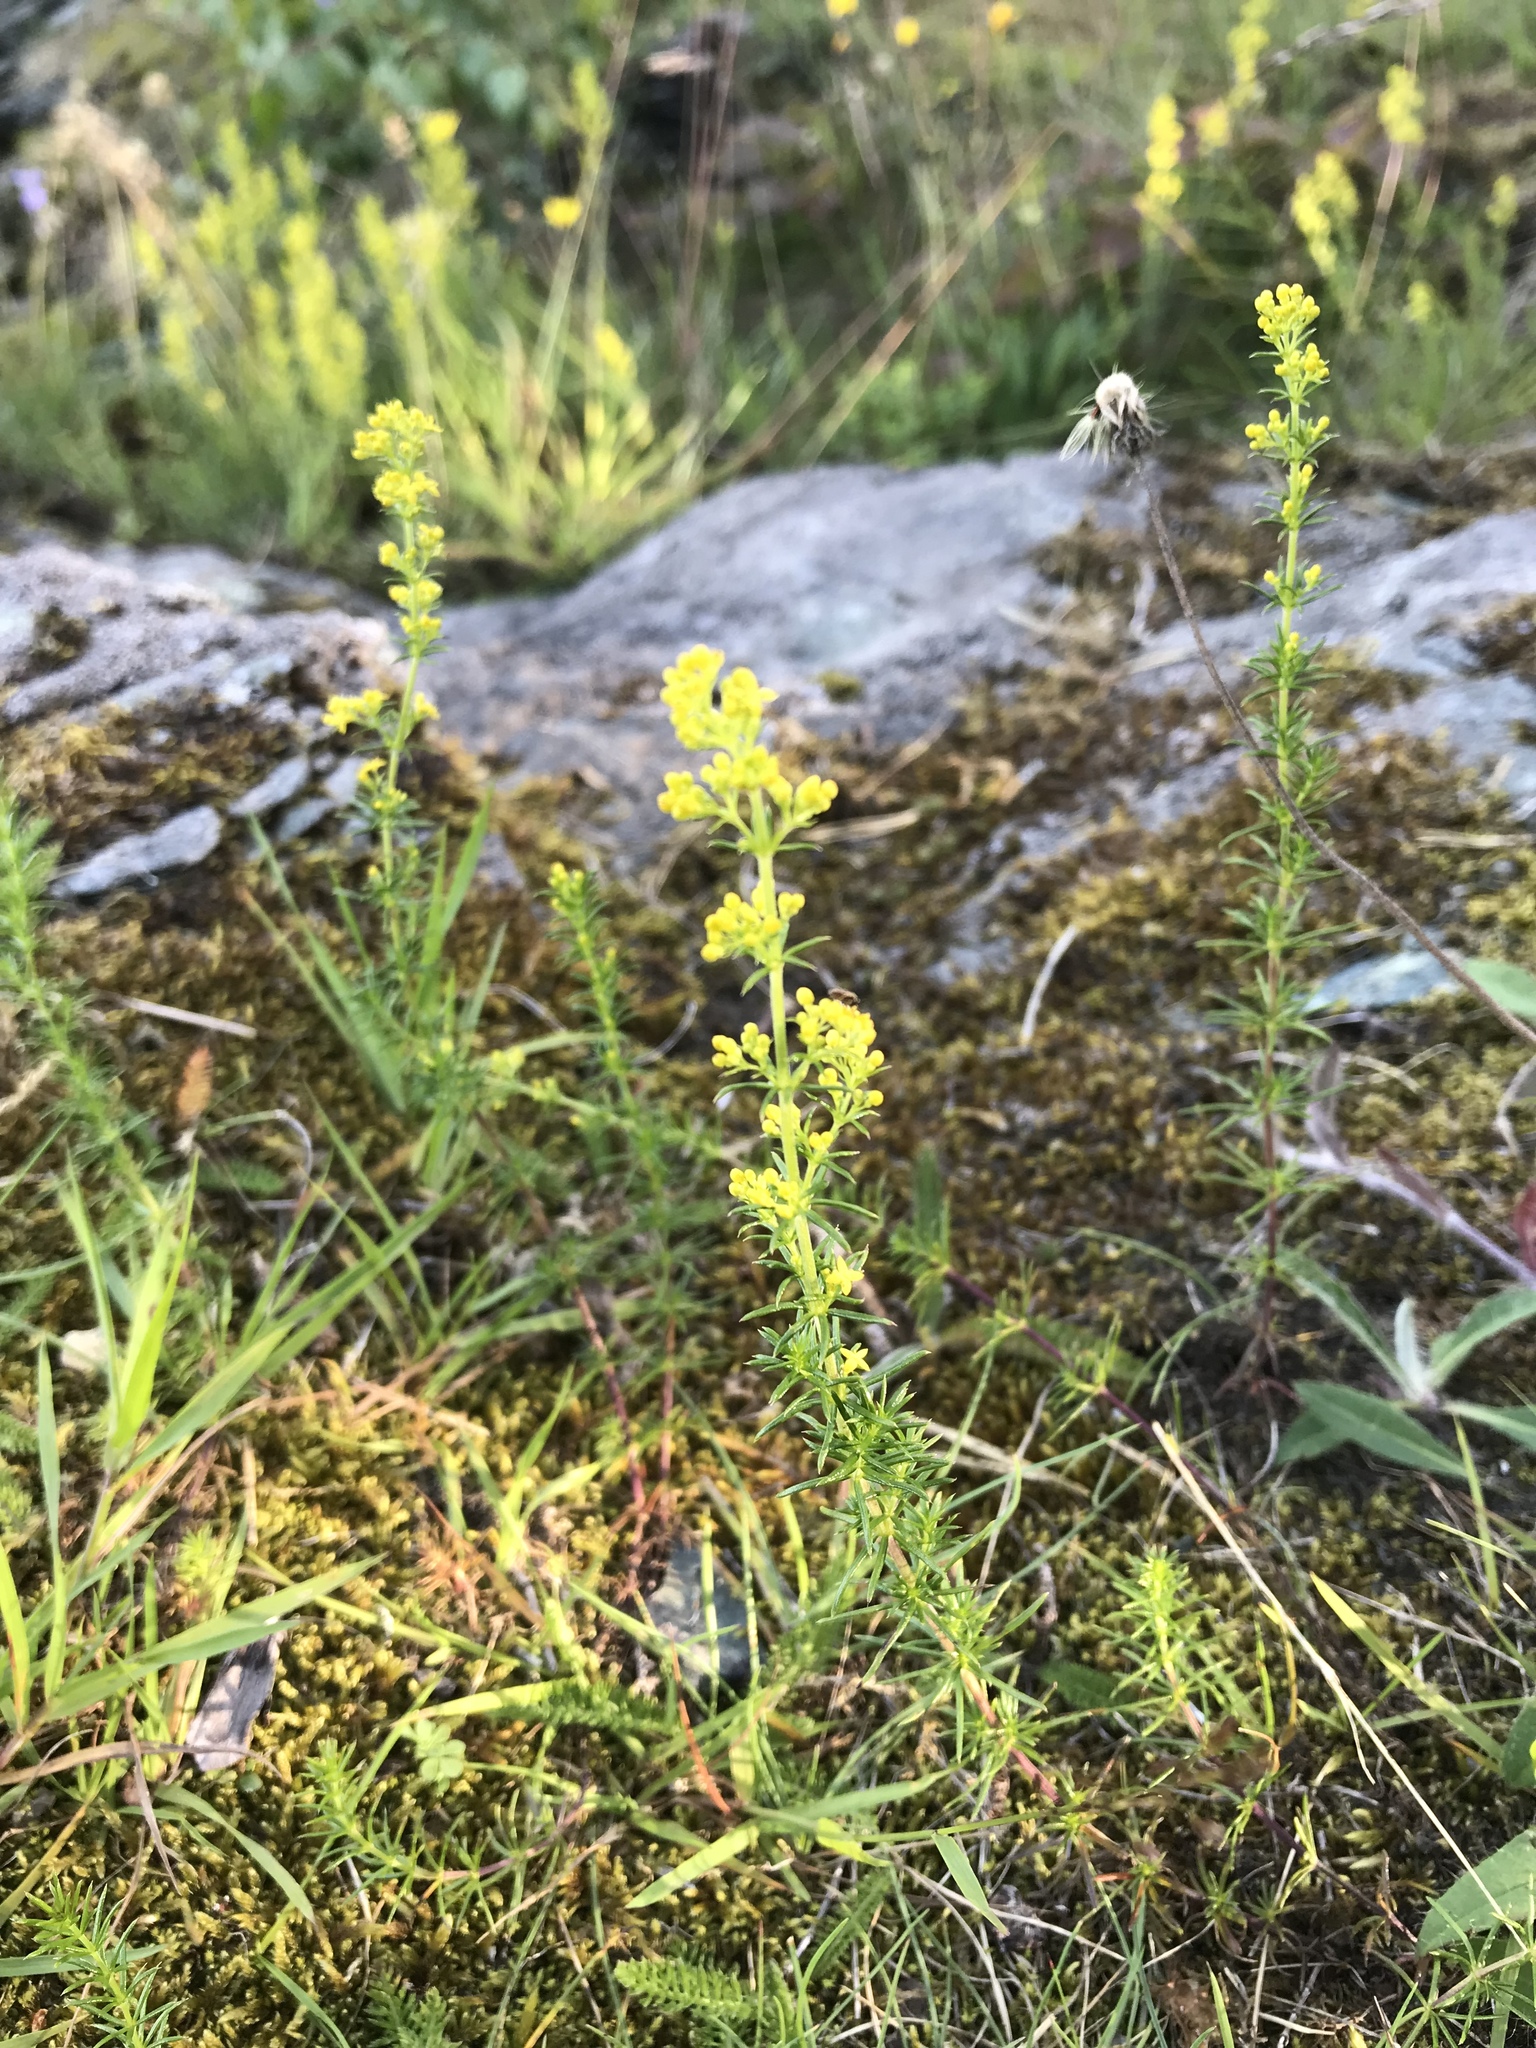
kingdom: Plantae
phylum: Tracheophyta
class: Magnoliopsida
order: Gentianales
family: Rubiaceae
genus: Galium
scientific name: Galium verum
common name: Lady's bedstraw
